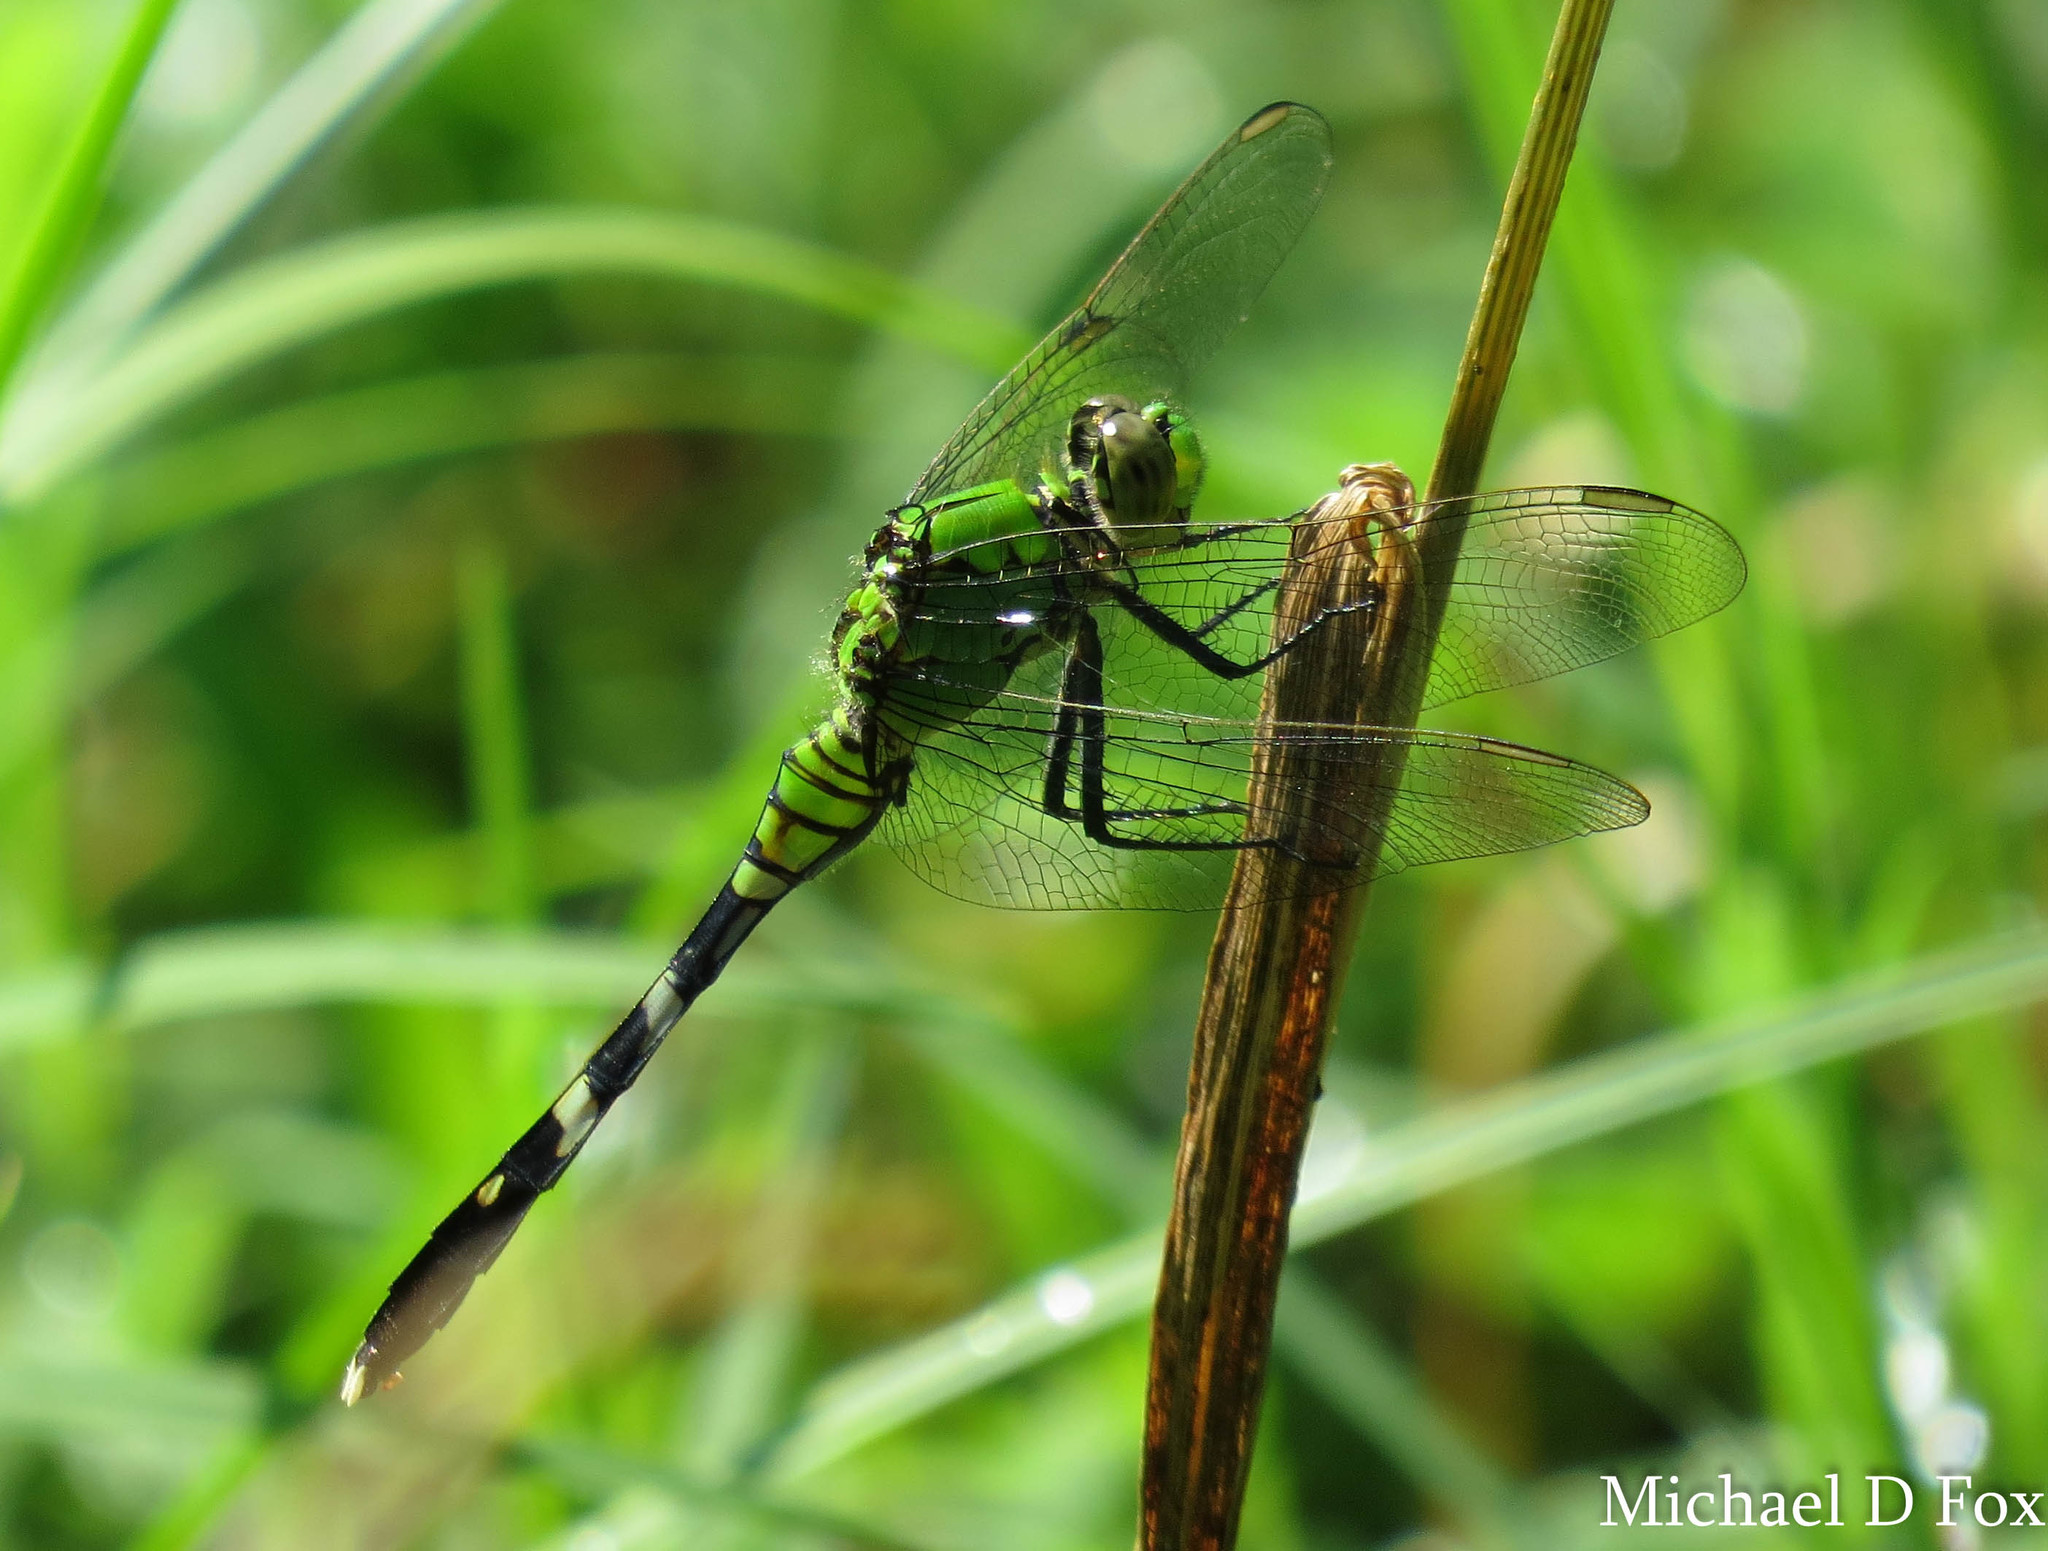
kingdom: Animalia
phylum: Arthropoda
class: Insecta
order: Odonata
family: Libellulidae
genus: Erythemis
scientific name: Erythemis simplicicollis
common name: Eastern pondhawk
